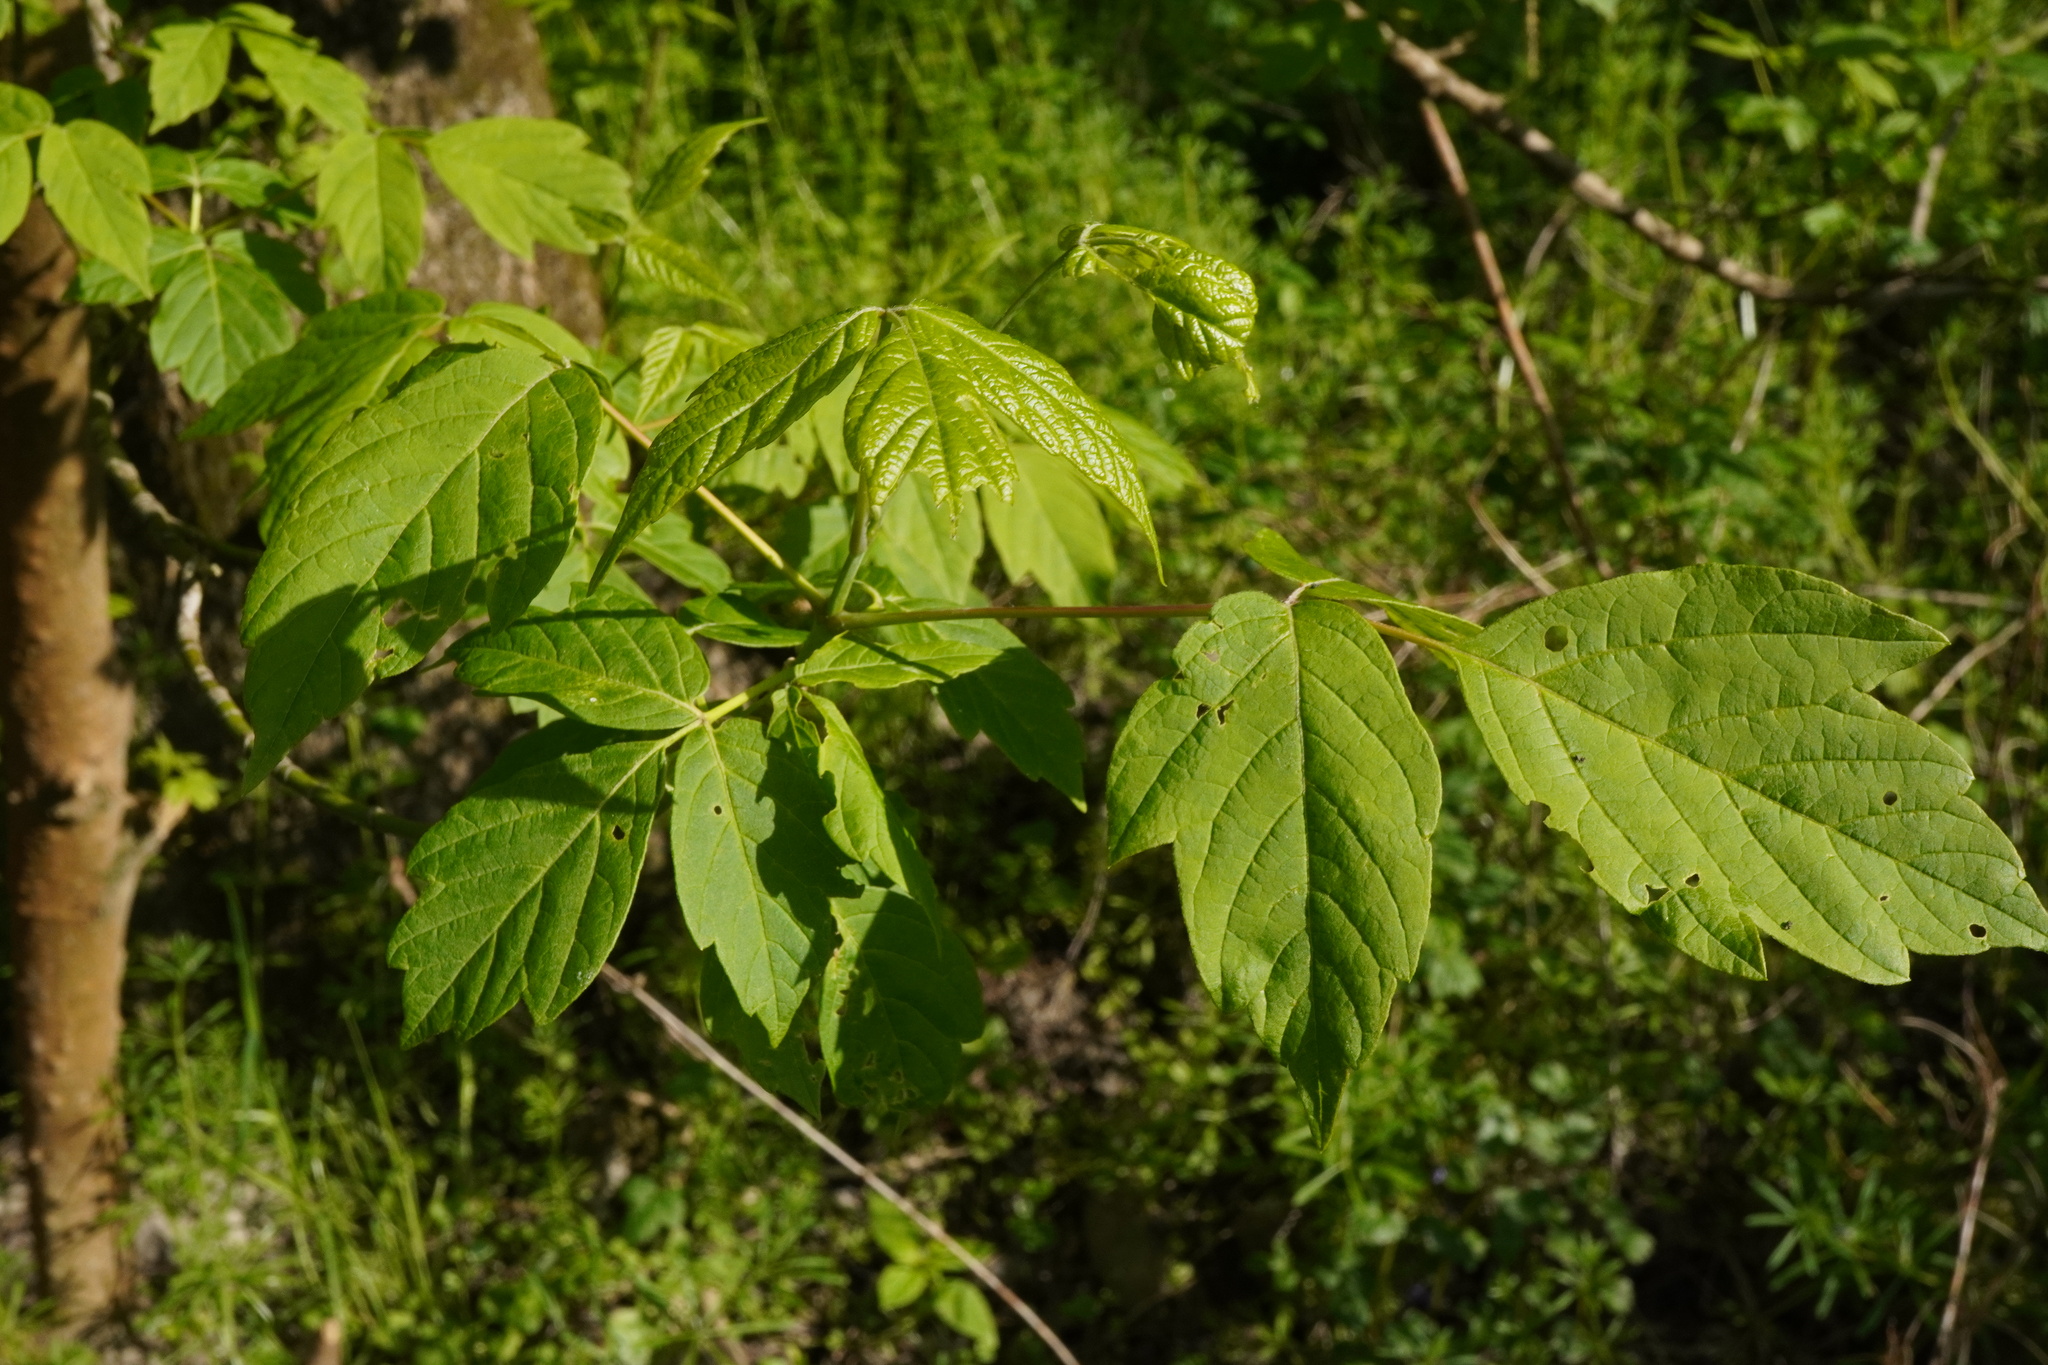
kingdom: Plantae
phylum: Tracheophyta
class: Magnoliopsida
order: Sapindales
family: Sapindaceae
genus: Acer
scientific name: Acer negundo
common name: Ashleaf maple
